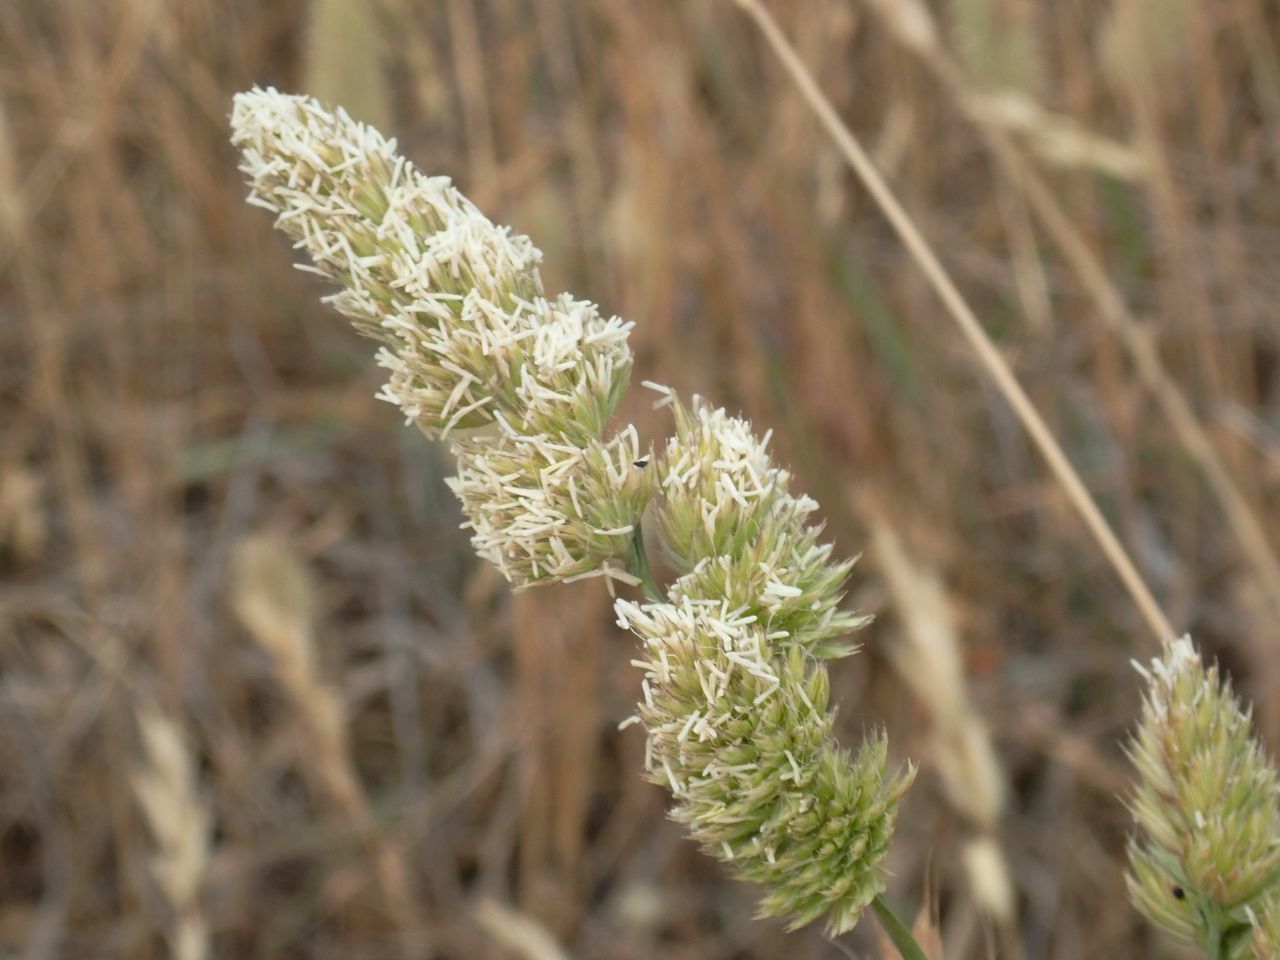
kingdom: Plantae
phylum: Tracheophyta
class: Liliopsida
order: Poales
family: Poaceae
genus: Phalaris
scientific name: Phalaris aquatica
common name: Bulbous canary-grass
